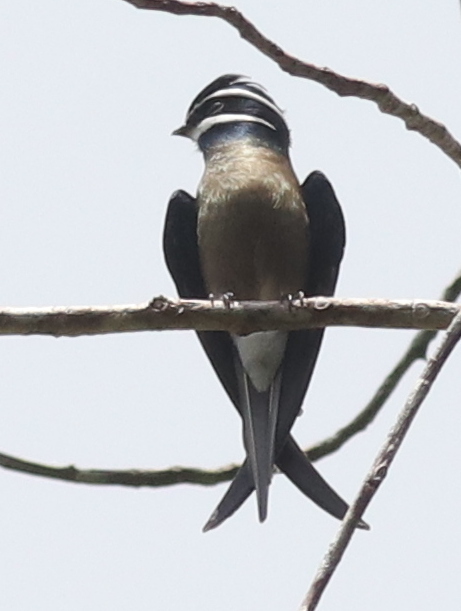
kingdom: Animalia
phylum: Chordata
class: Aves
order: Apodiformes
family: Hemiprocnidae
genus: Hemiprocne
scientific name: Hemiprocne comata
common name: Whiskered treeswift
